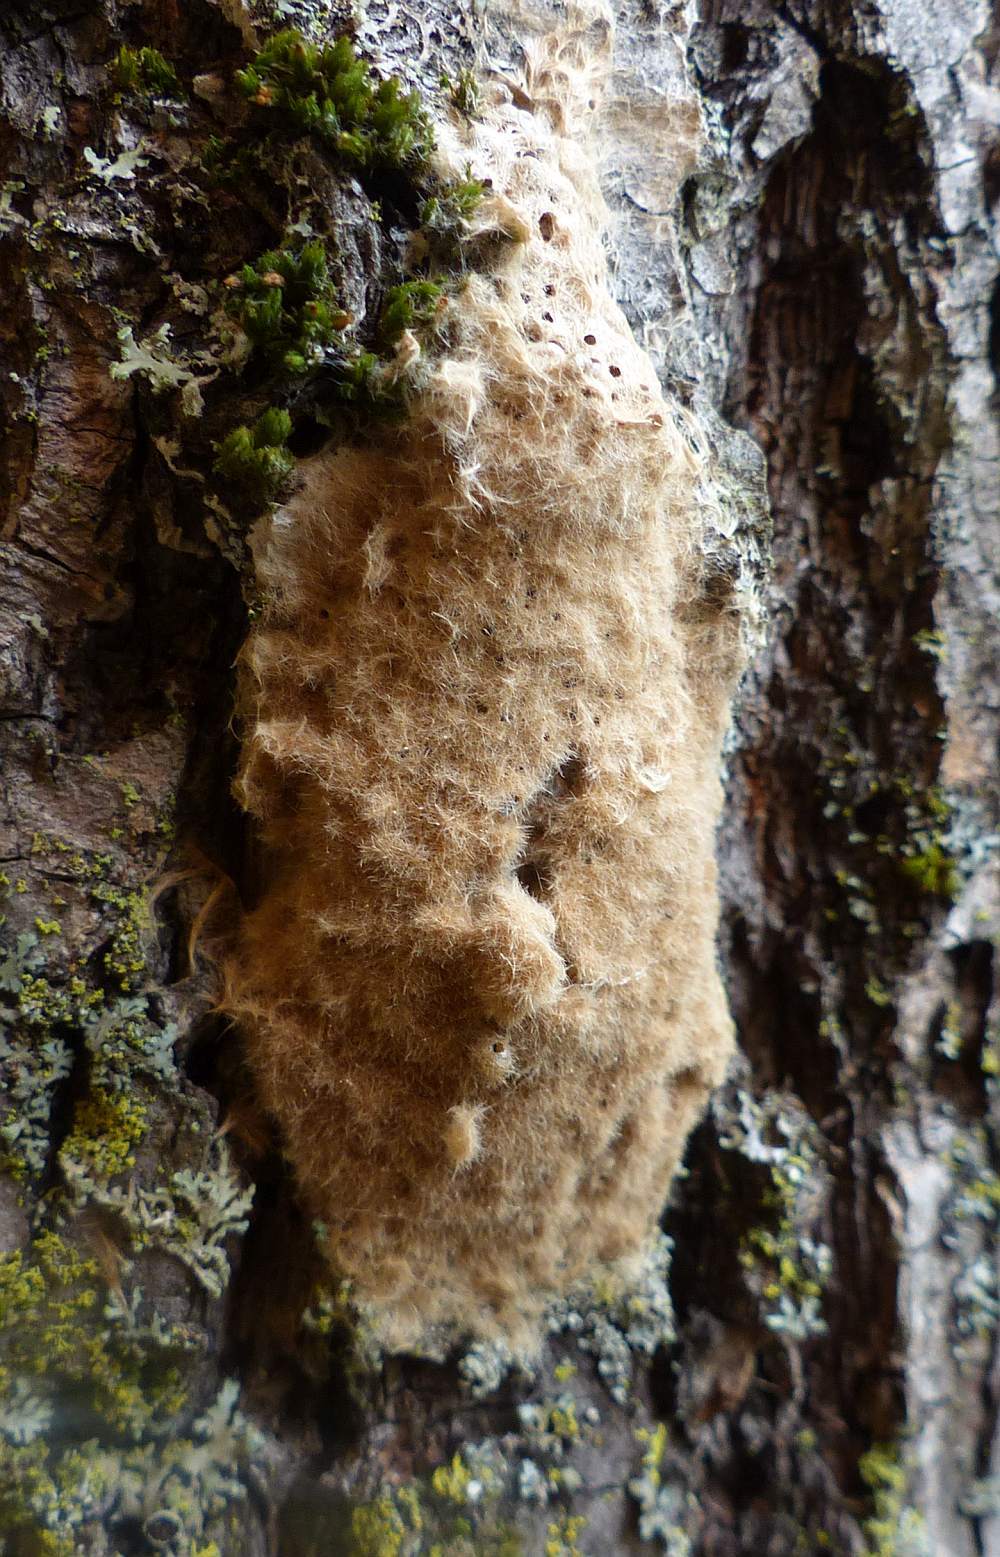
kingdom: Animalia
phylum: Arthropoda
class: Insecta
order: Lepidoptera
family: Erebidae
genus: Lymantria
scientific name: Lymantria dispar
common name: Gypsy moth
